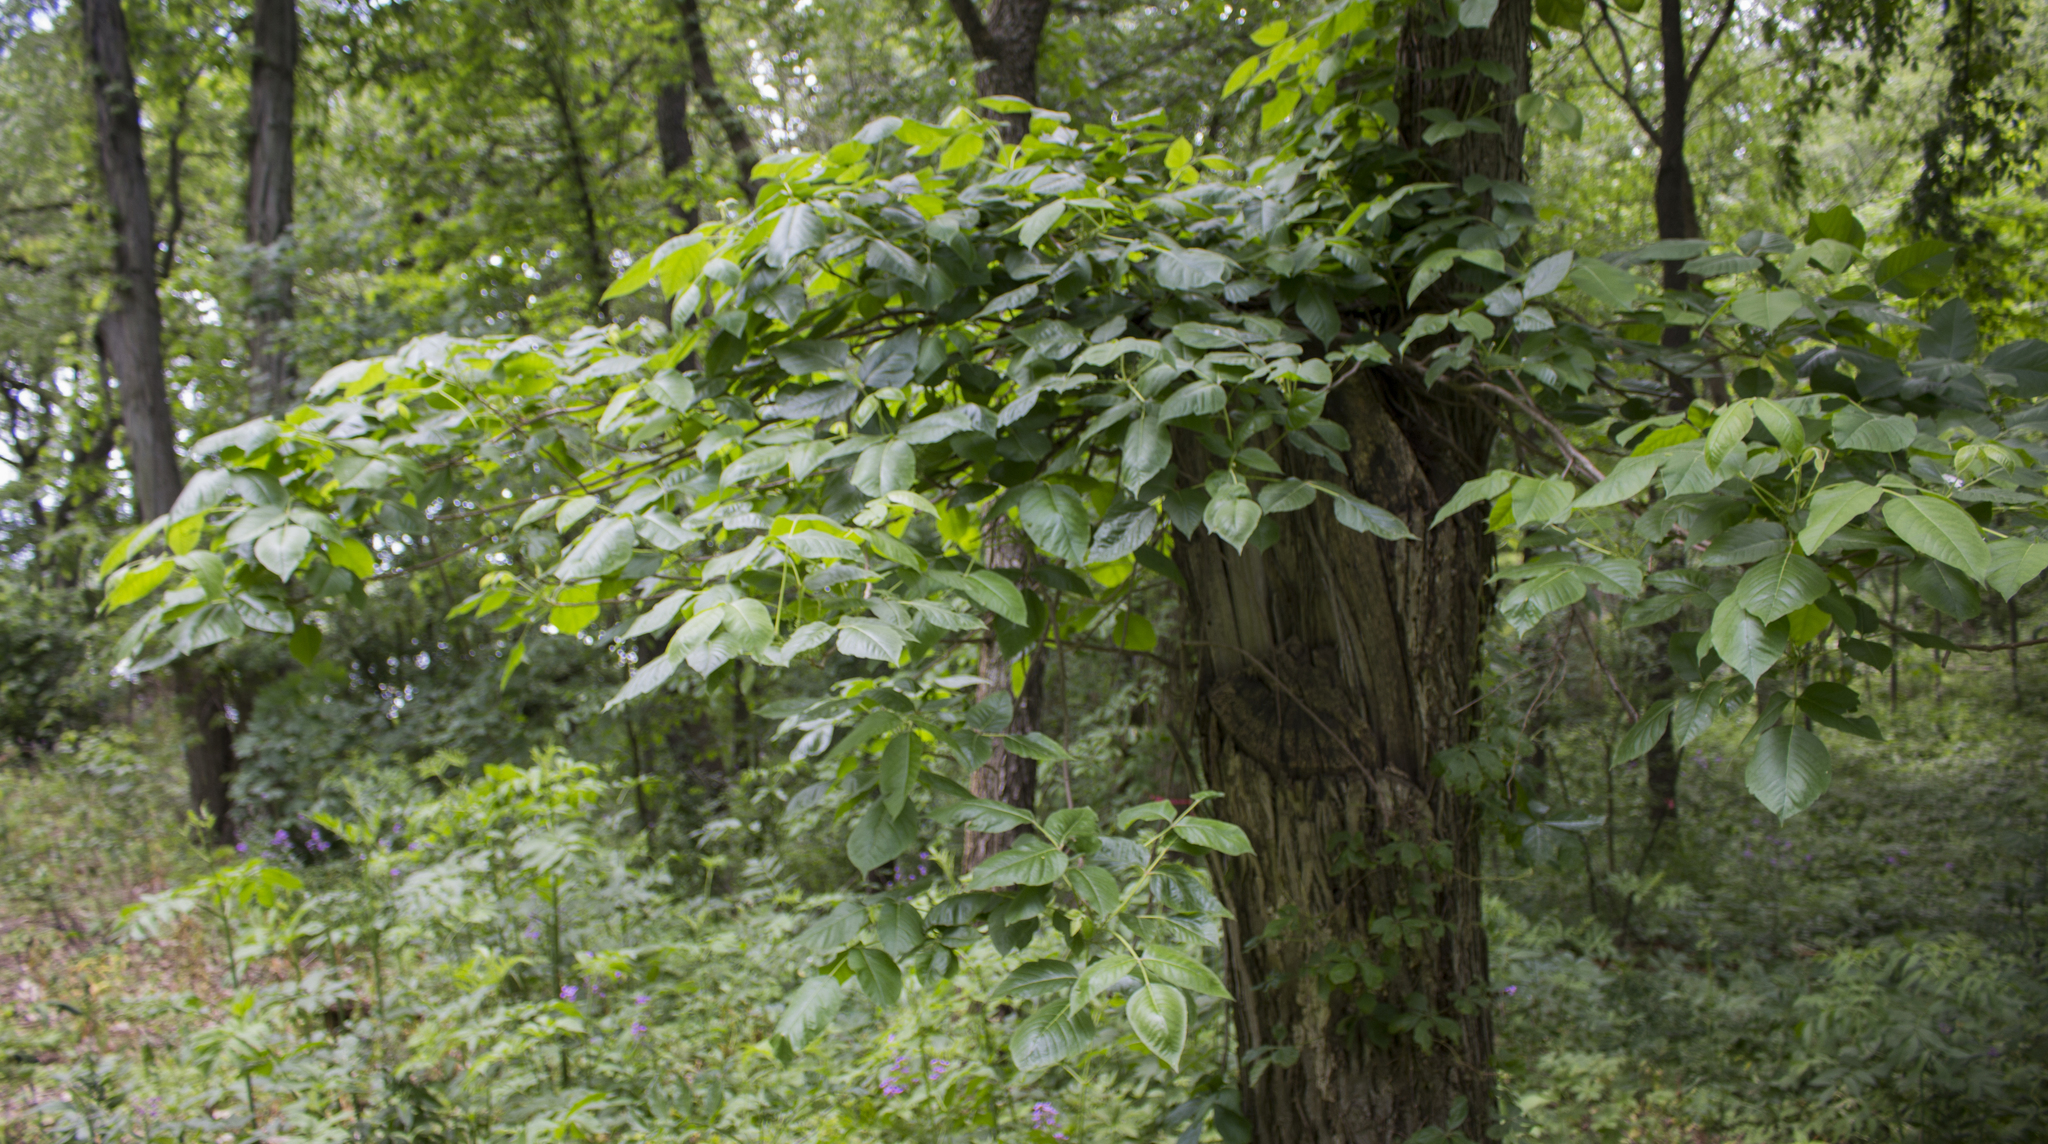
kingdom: Plantae
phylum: Tracheophyta
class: Magnoliopsida
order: Sapindales
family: Anacardiaceae
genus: Toxicodendron
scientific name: Toxicodendron radicans
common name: Poison ivy
